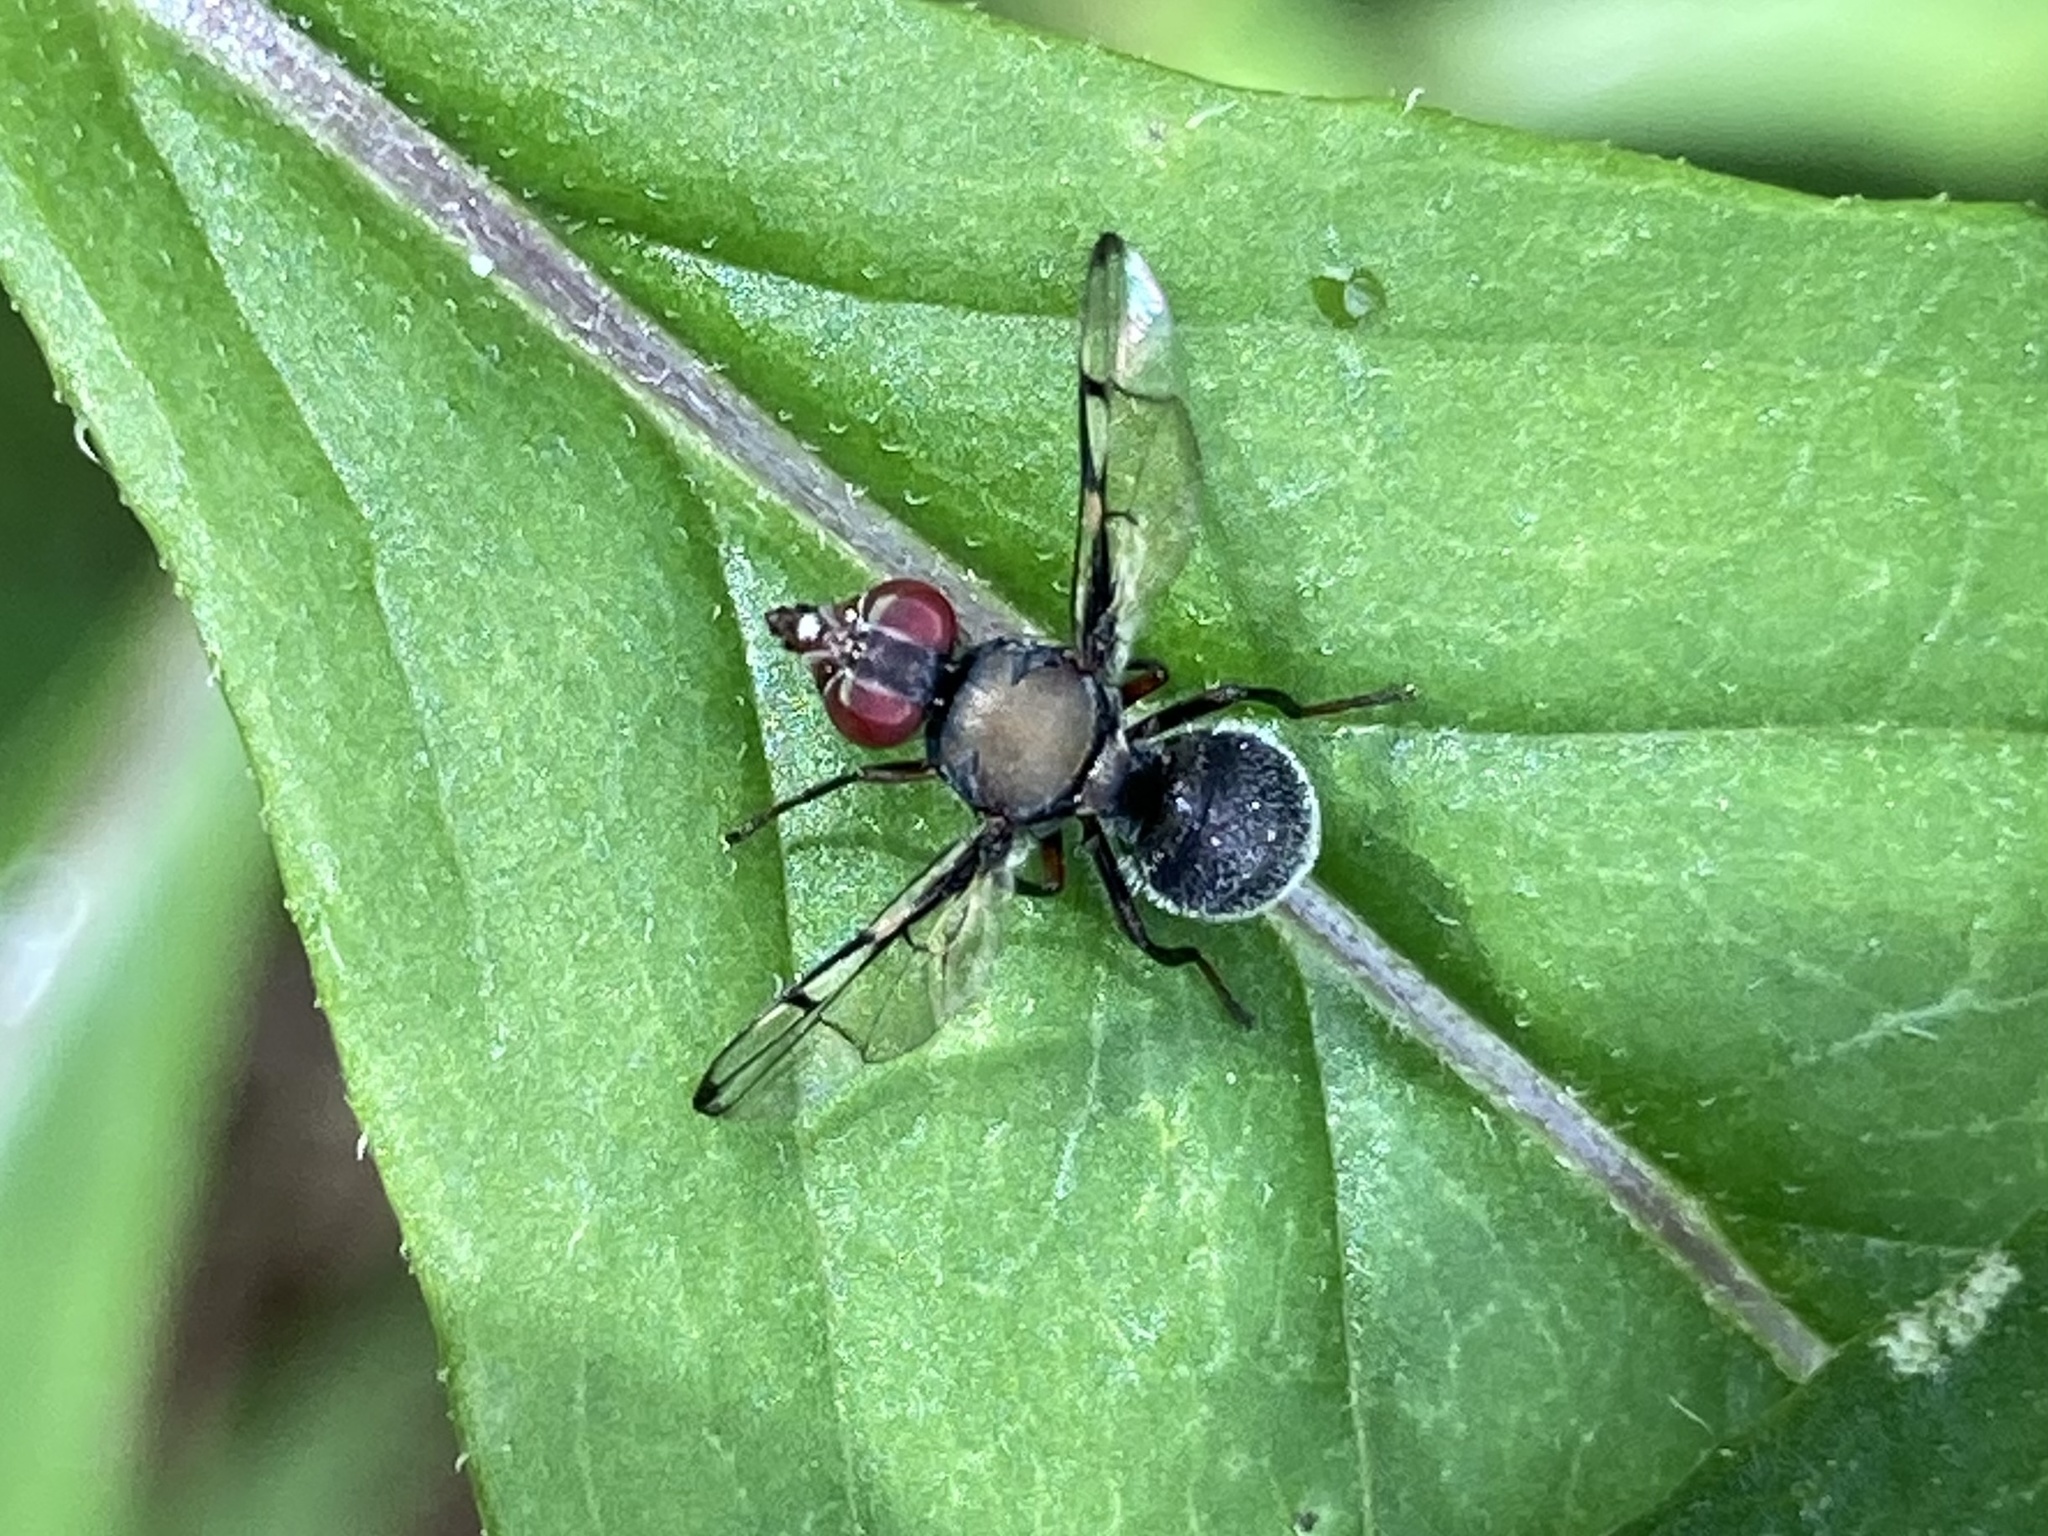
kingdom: Animalia
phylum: Arthropoda
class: Insecta
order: Diptera
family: Platystomatidae
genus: Pogonortalis
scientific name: Pogonortalis doclea
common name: Boatman fly
